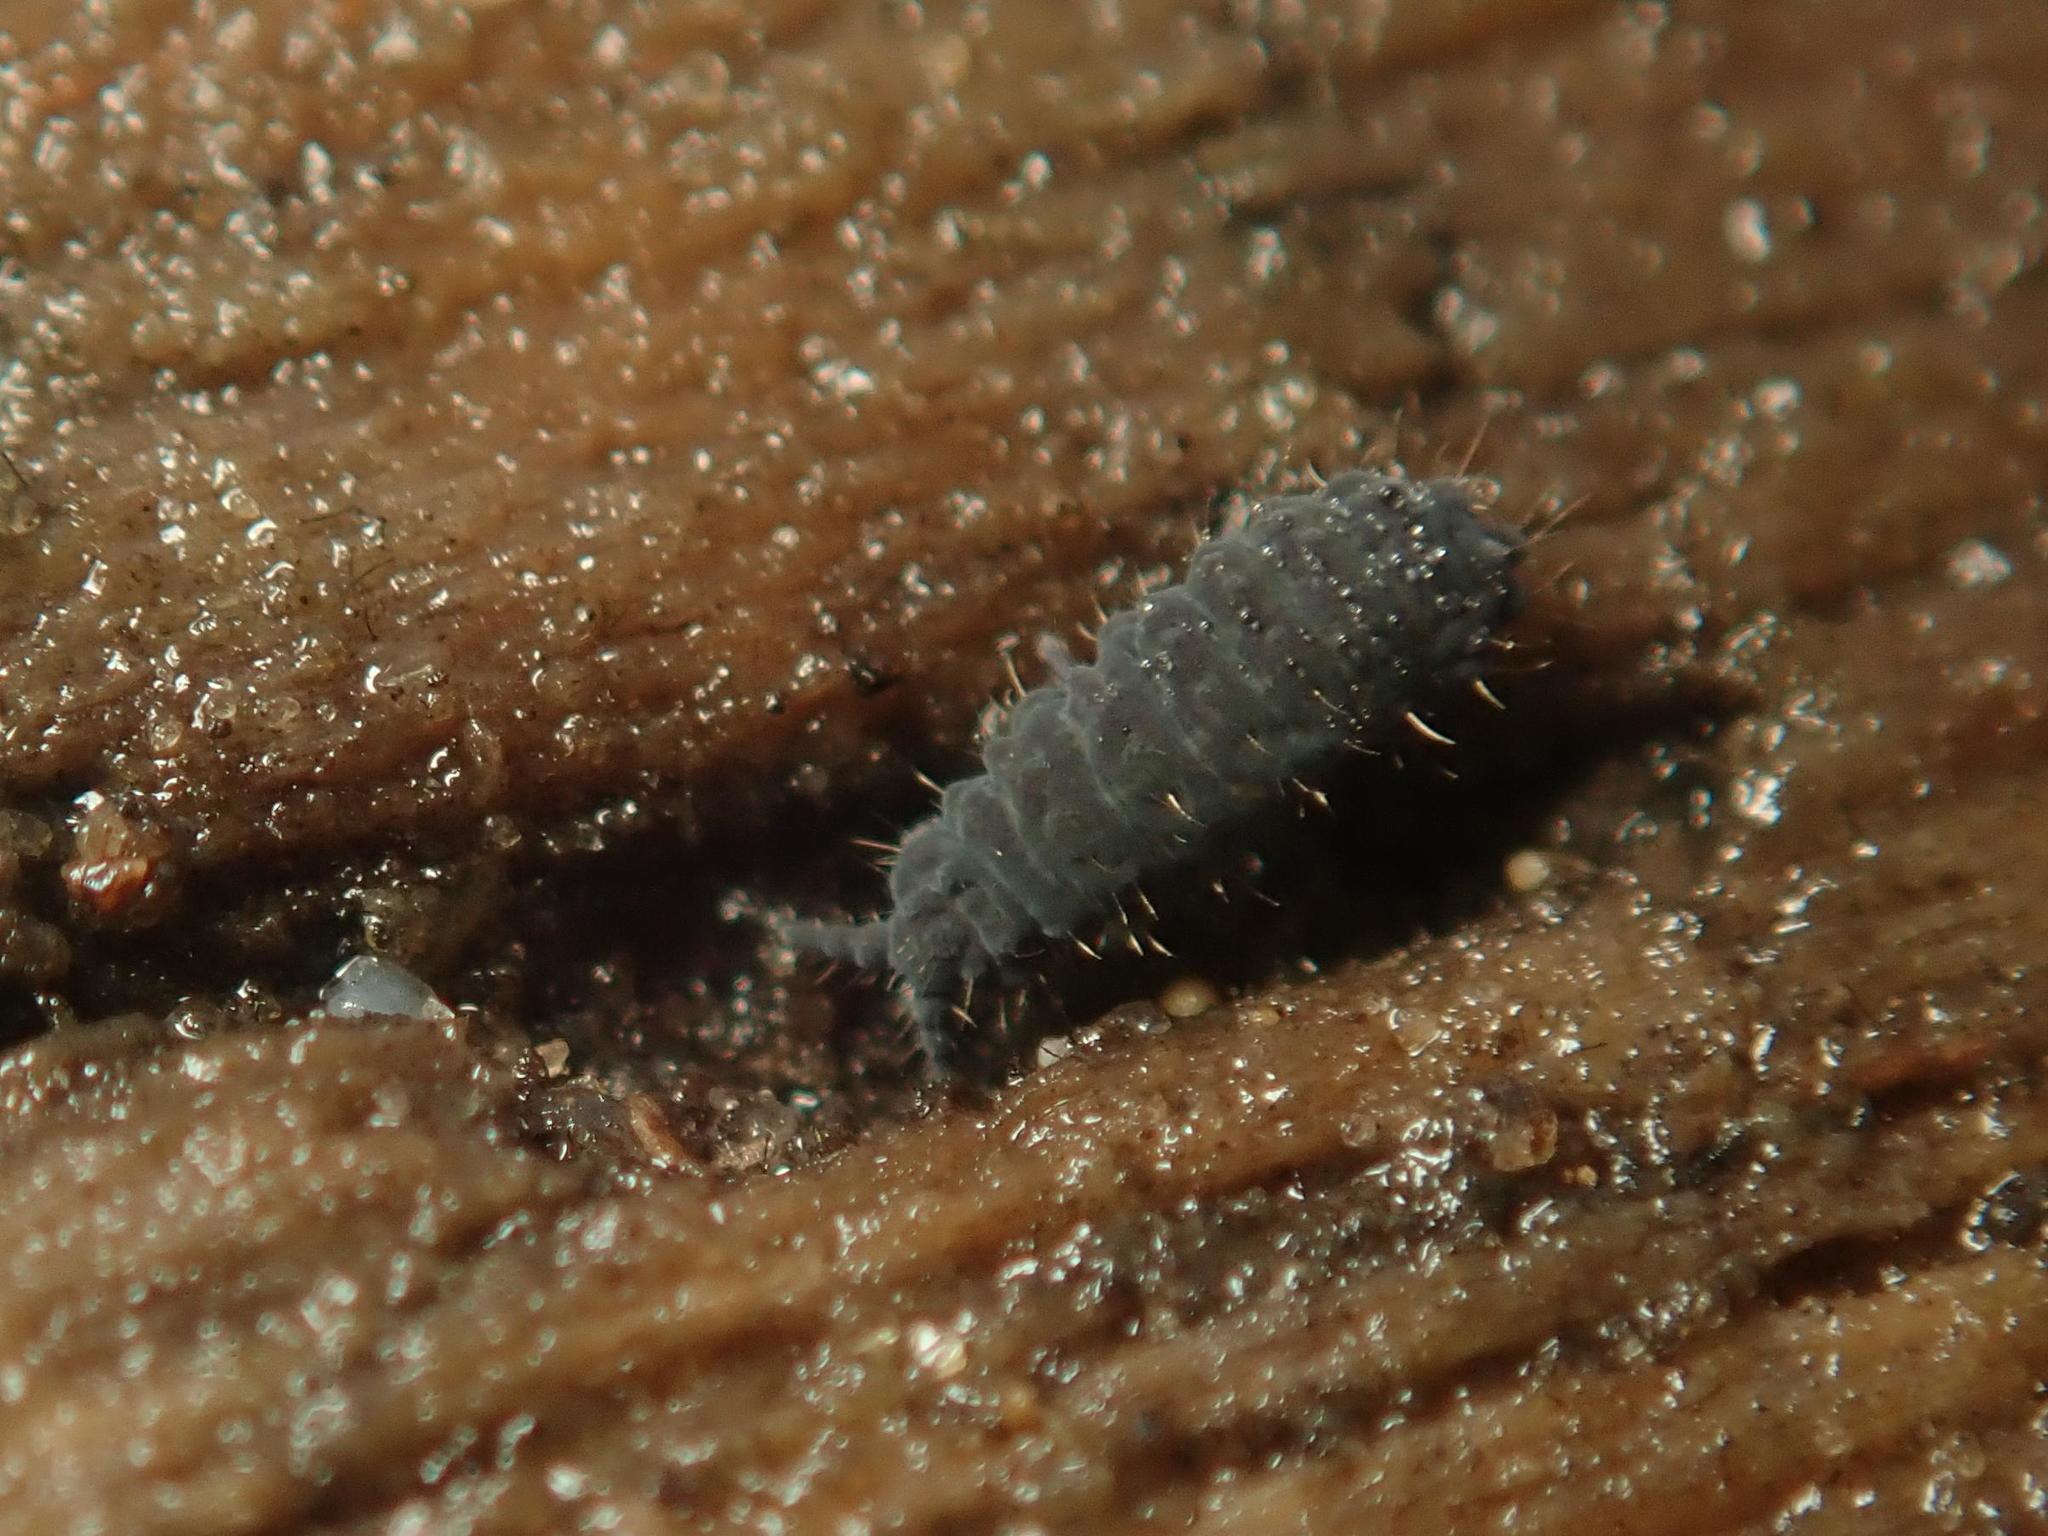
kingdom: Animalia
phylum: Arthropoda
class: Collembola
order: Poduromorpha
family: Neanuridae
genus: Neanura
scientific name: Neanura muscorum
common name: Springtail
